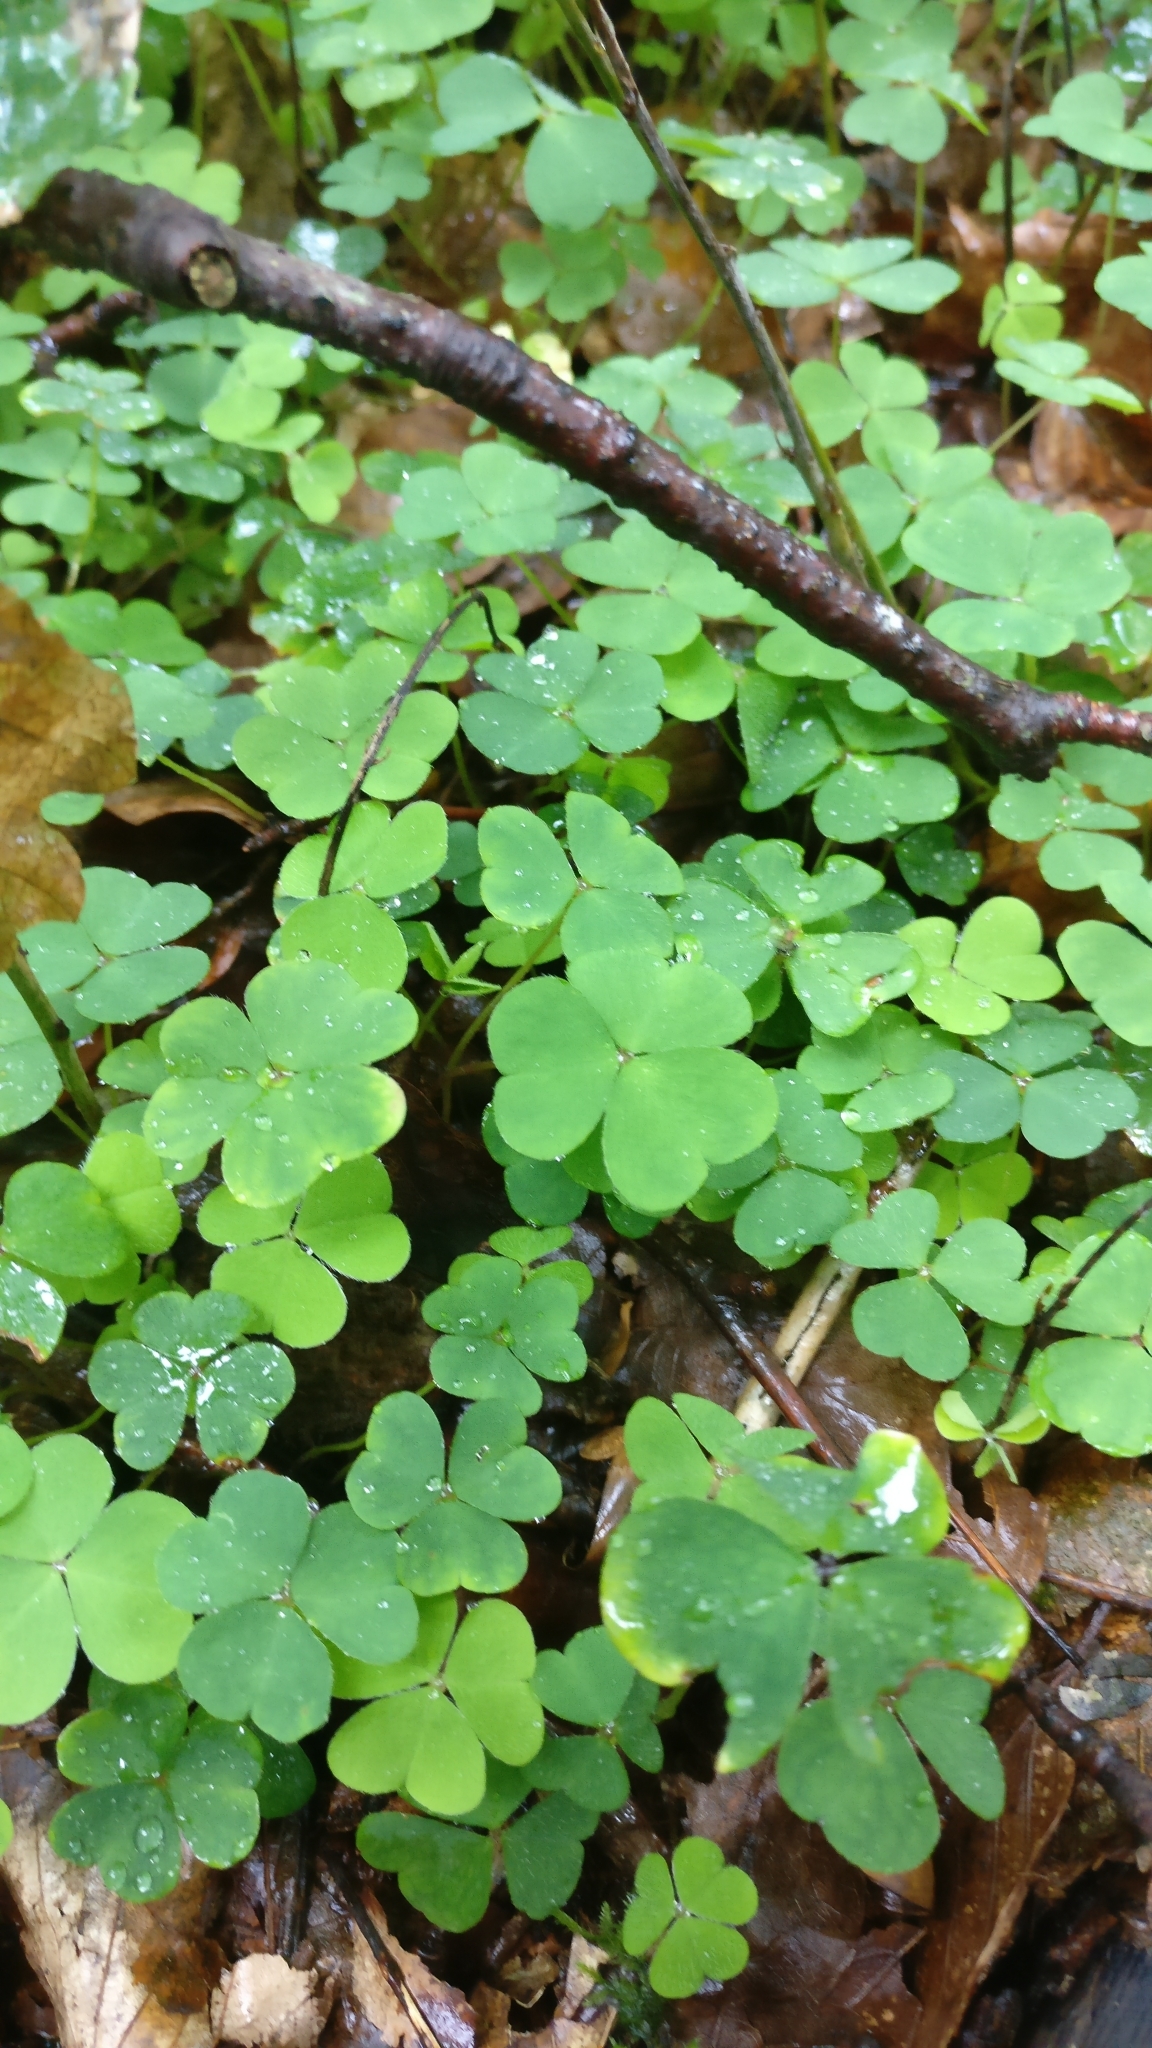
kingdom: Plantae
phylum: Tracheophyta
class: Magnoliopsida
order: Oxalidales
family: Oxalidaceae
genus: Oxalis
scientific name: Oxalis acetosella
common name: Wood-sorrel
